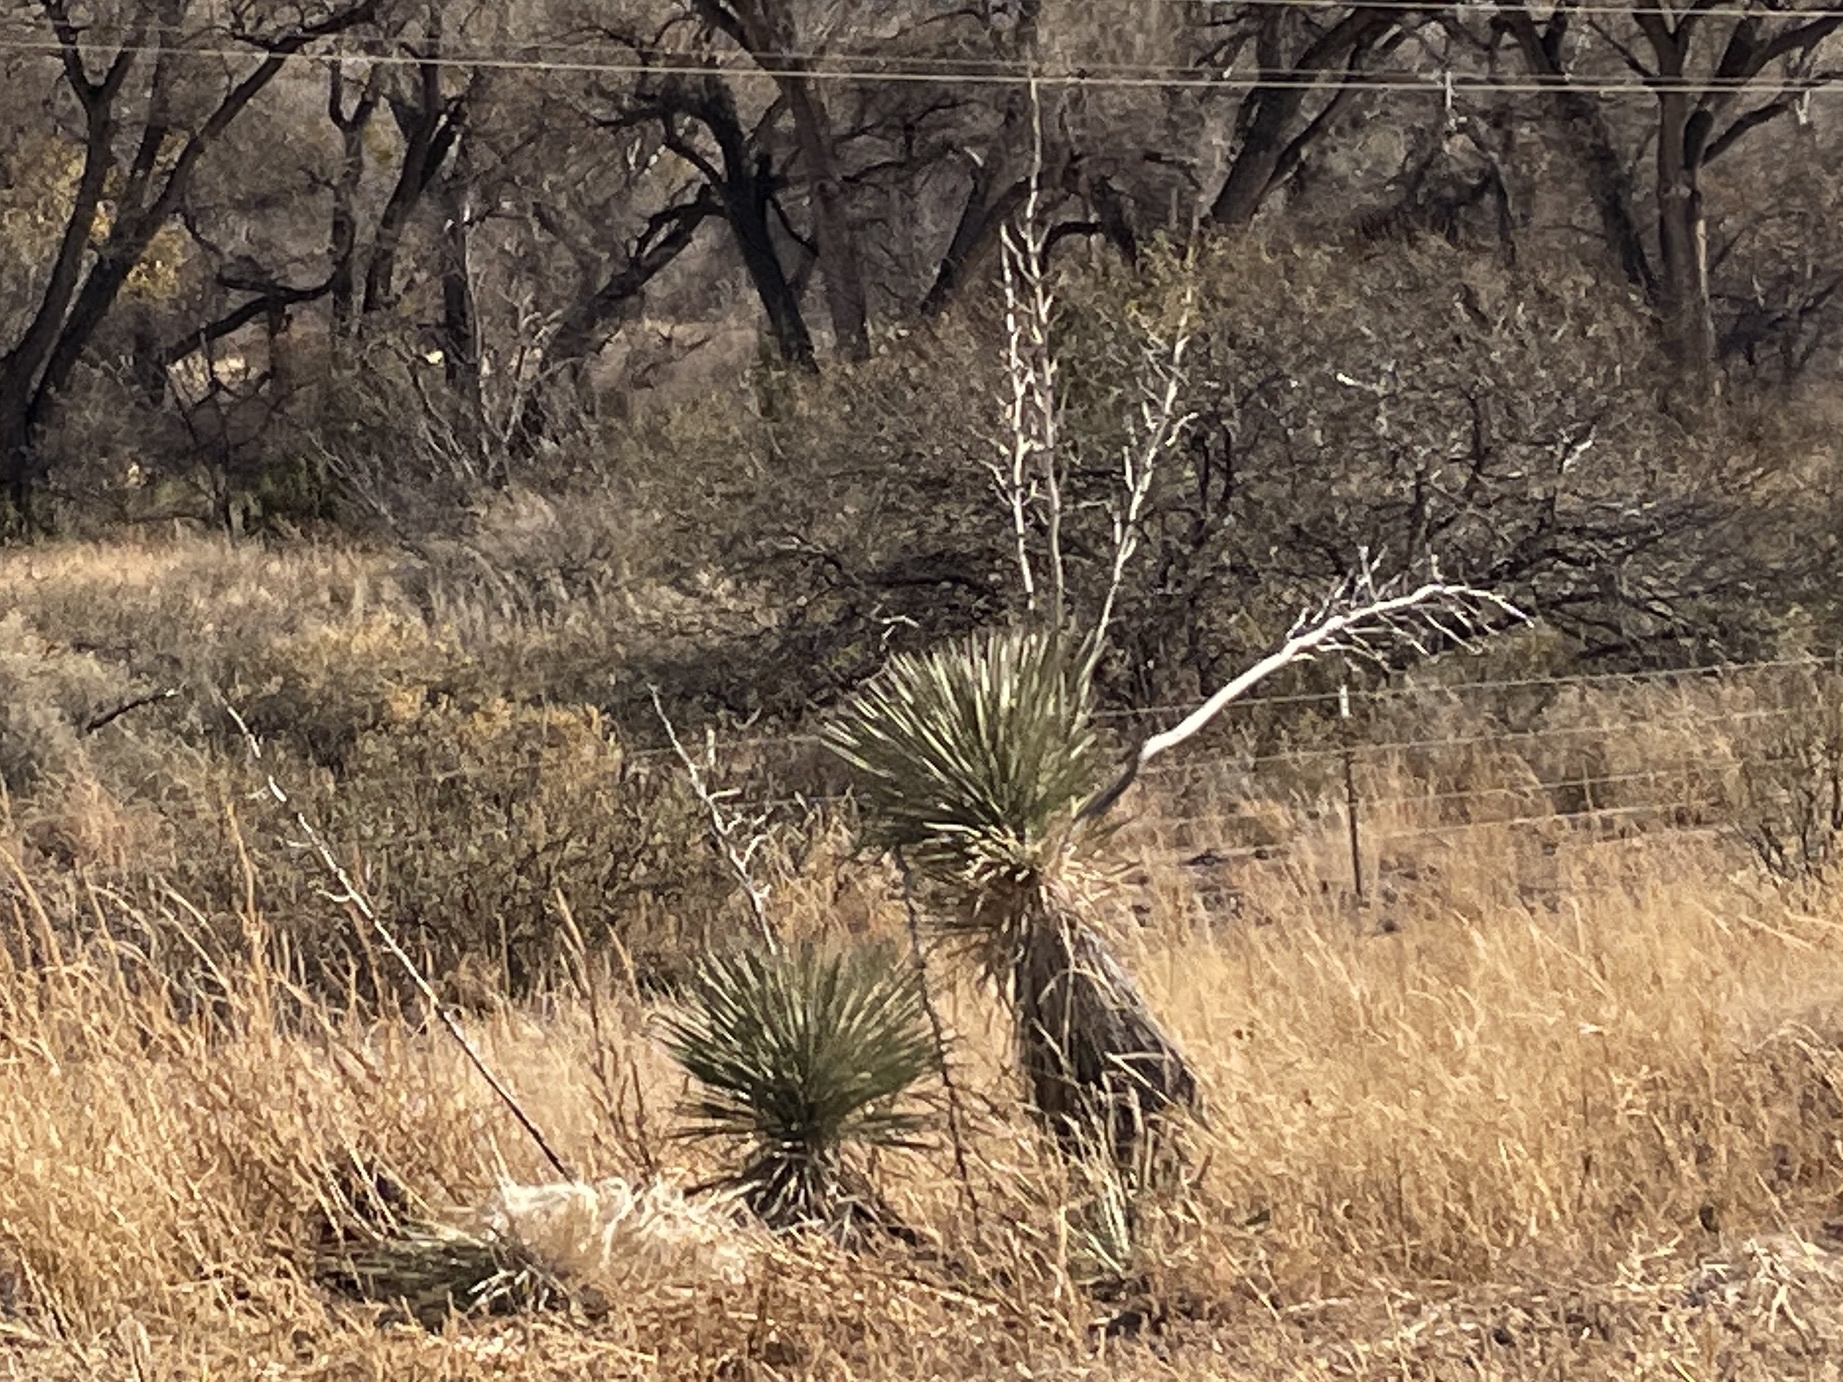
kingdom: Plantae
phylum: Tracheophyta
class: Liliopsida
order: Asparagales
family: Asparagaceae
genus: Yucca
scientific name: Yucca elata
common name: Palmella
